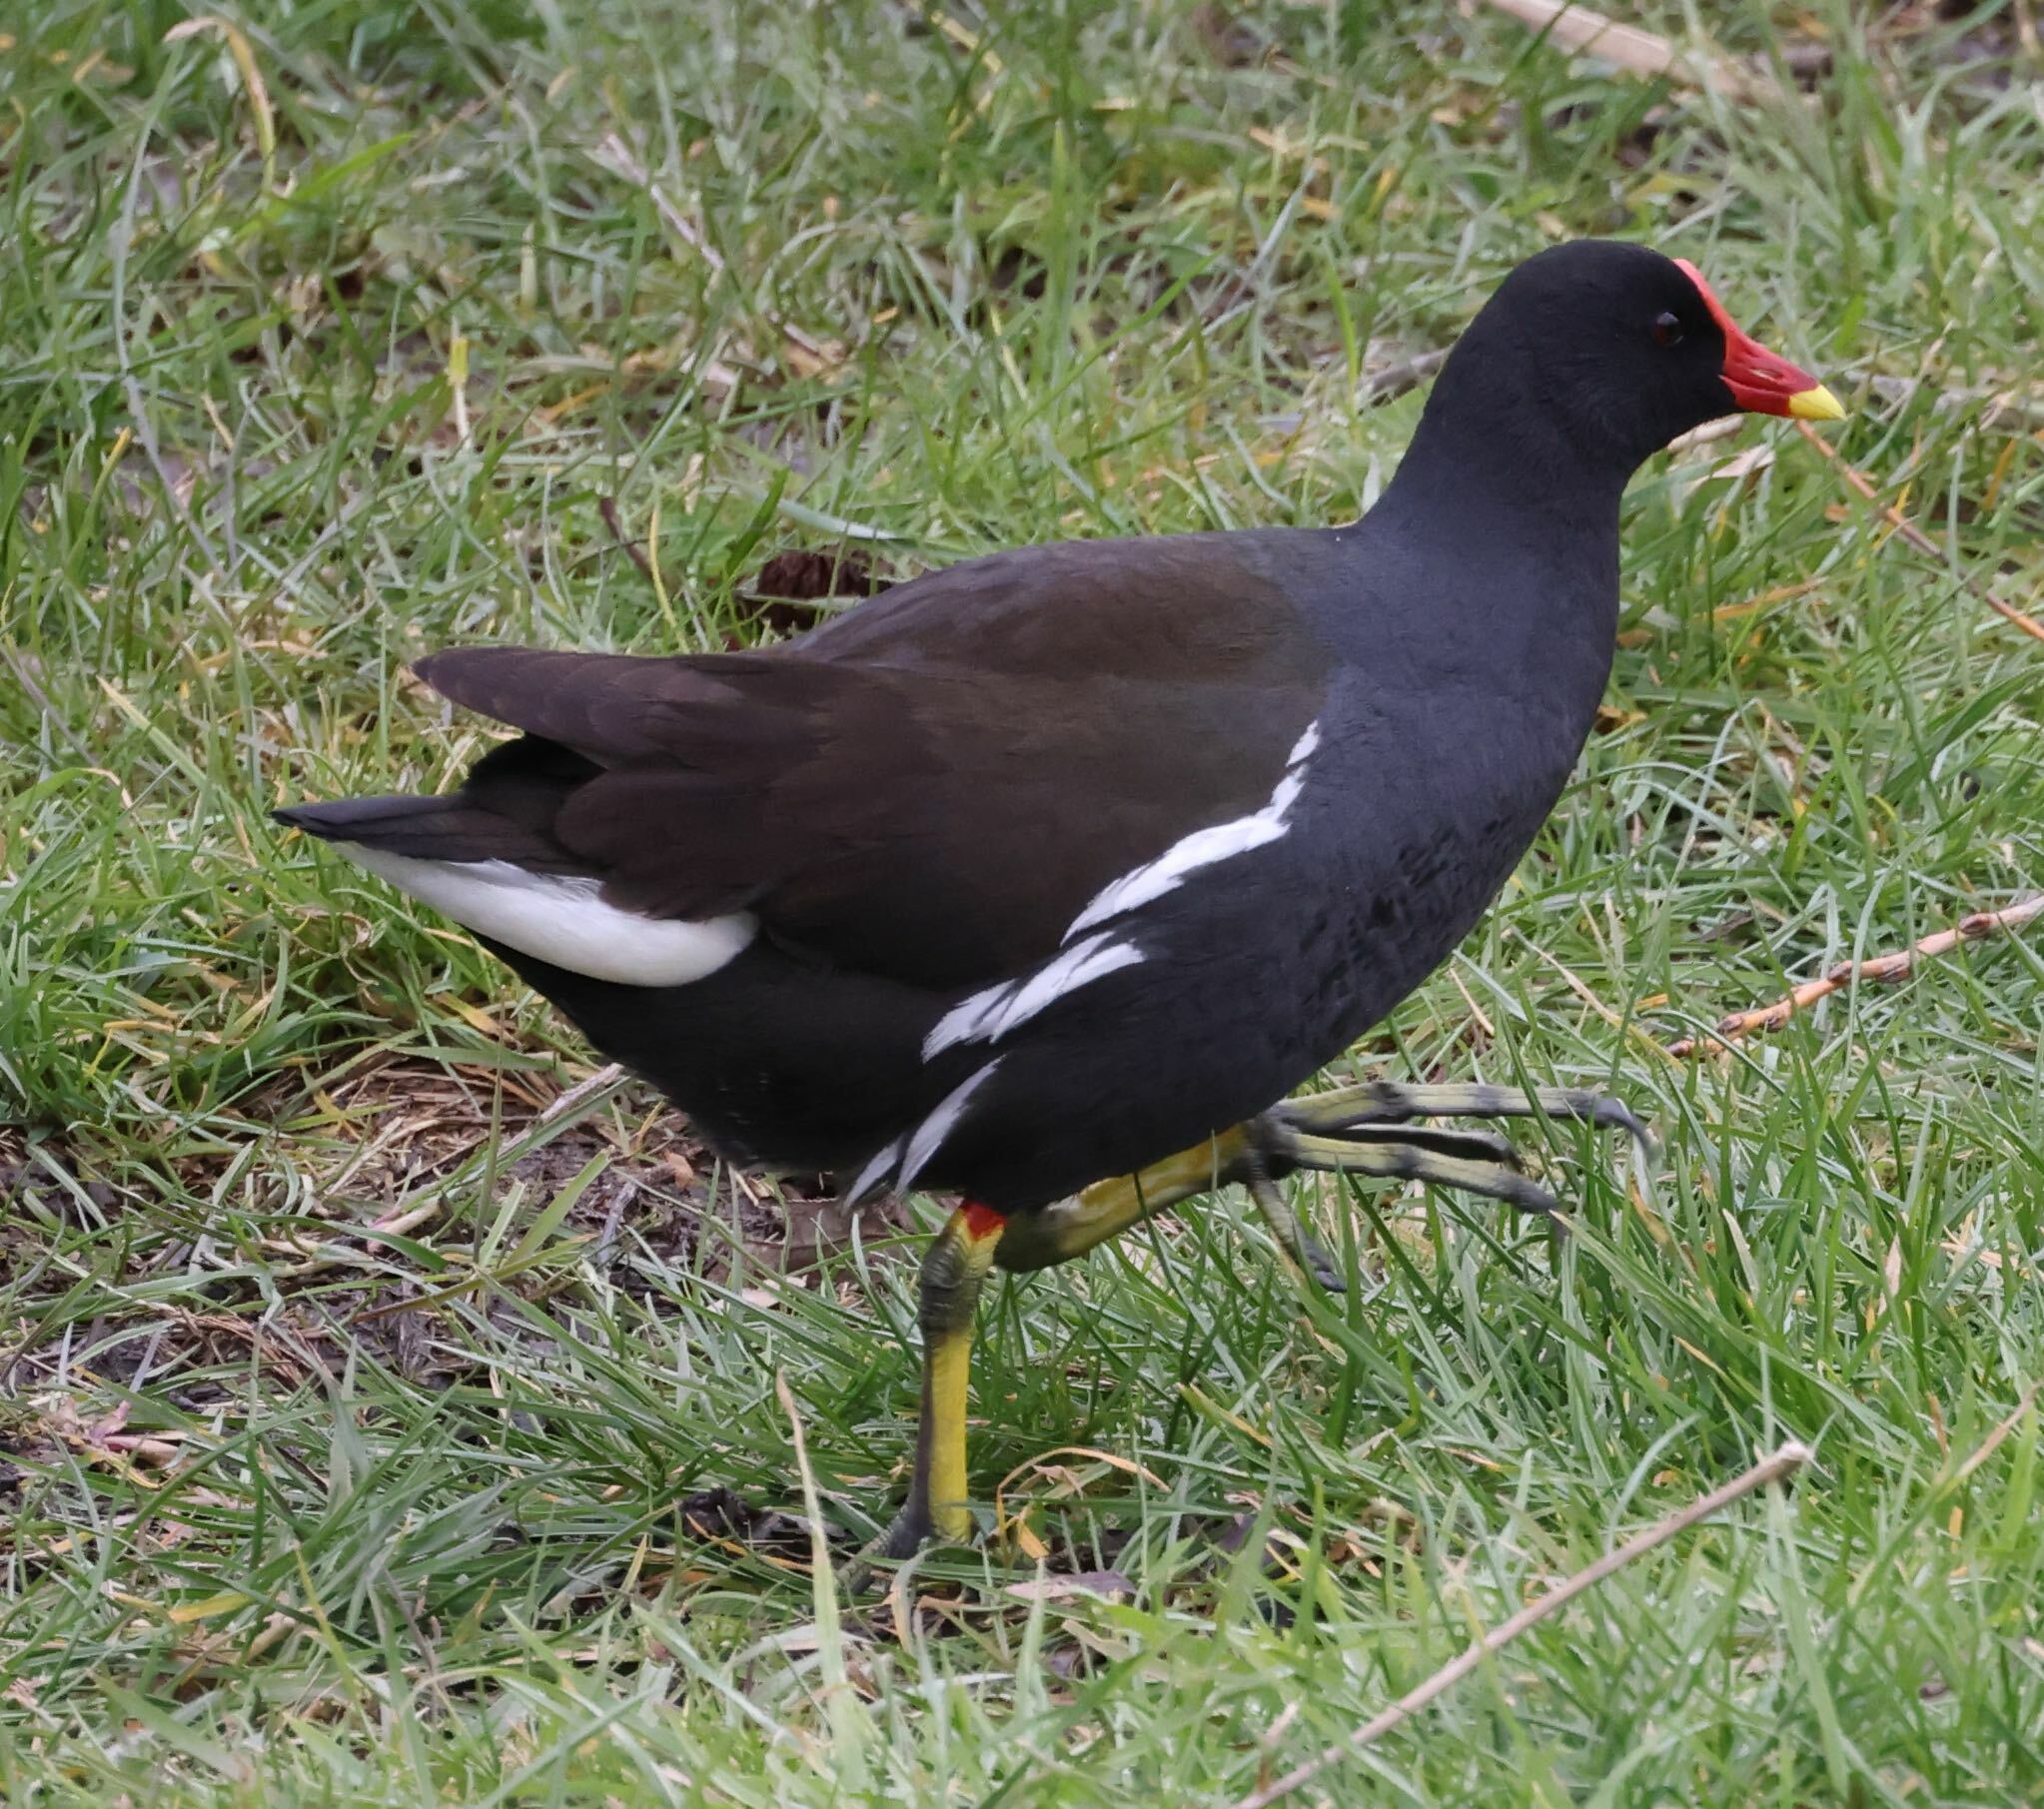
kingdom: Animalia
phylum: Chordata
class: Aves
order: Gruiformes
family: Rallidae
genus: Gallinula
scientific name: Gallinula chloropus
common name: Common moorhen
